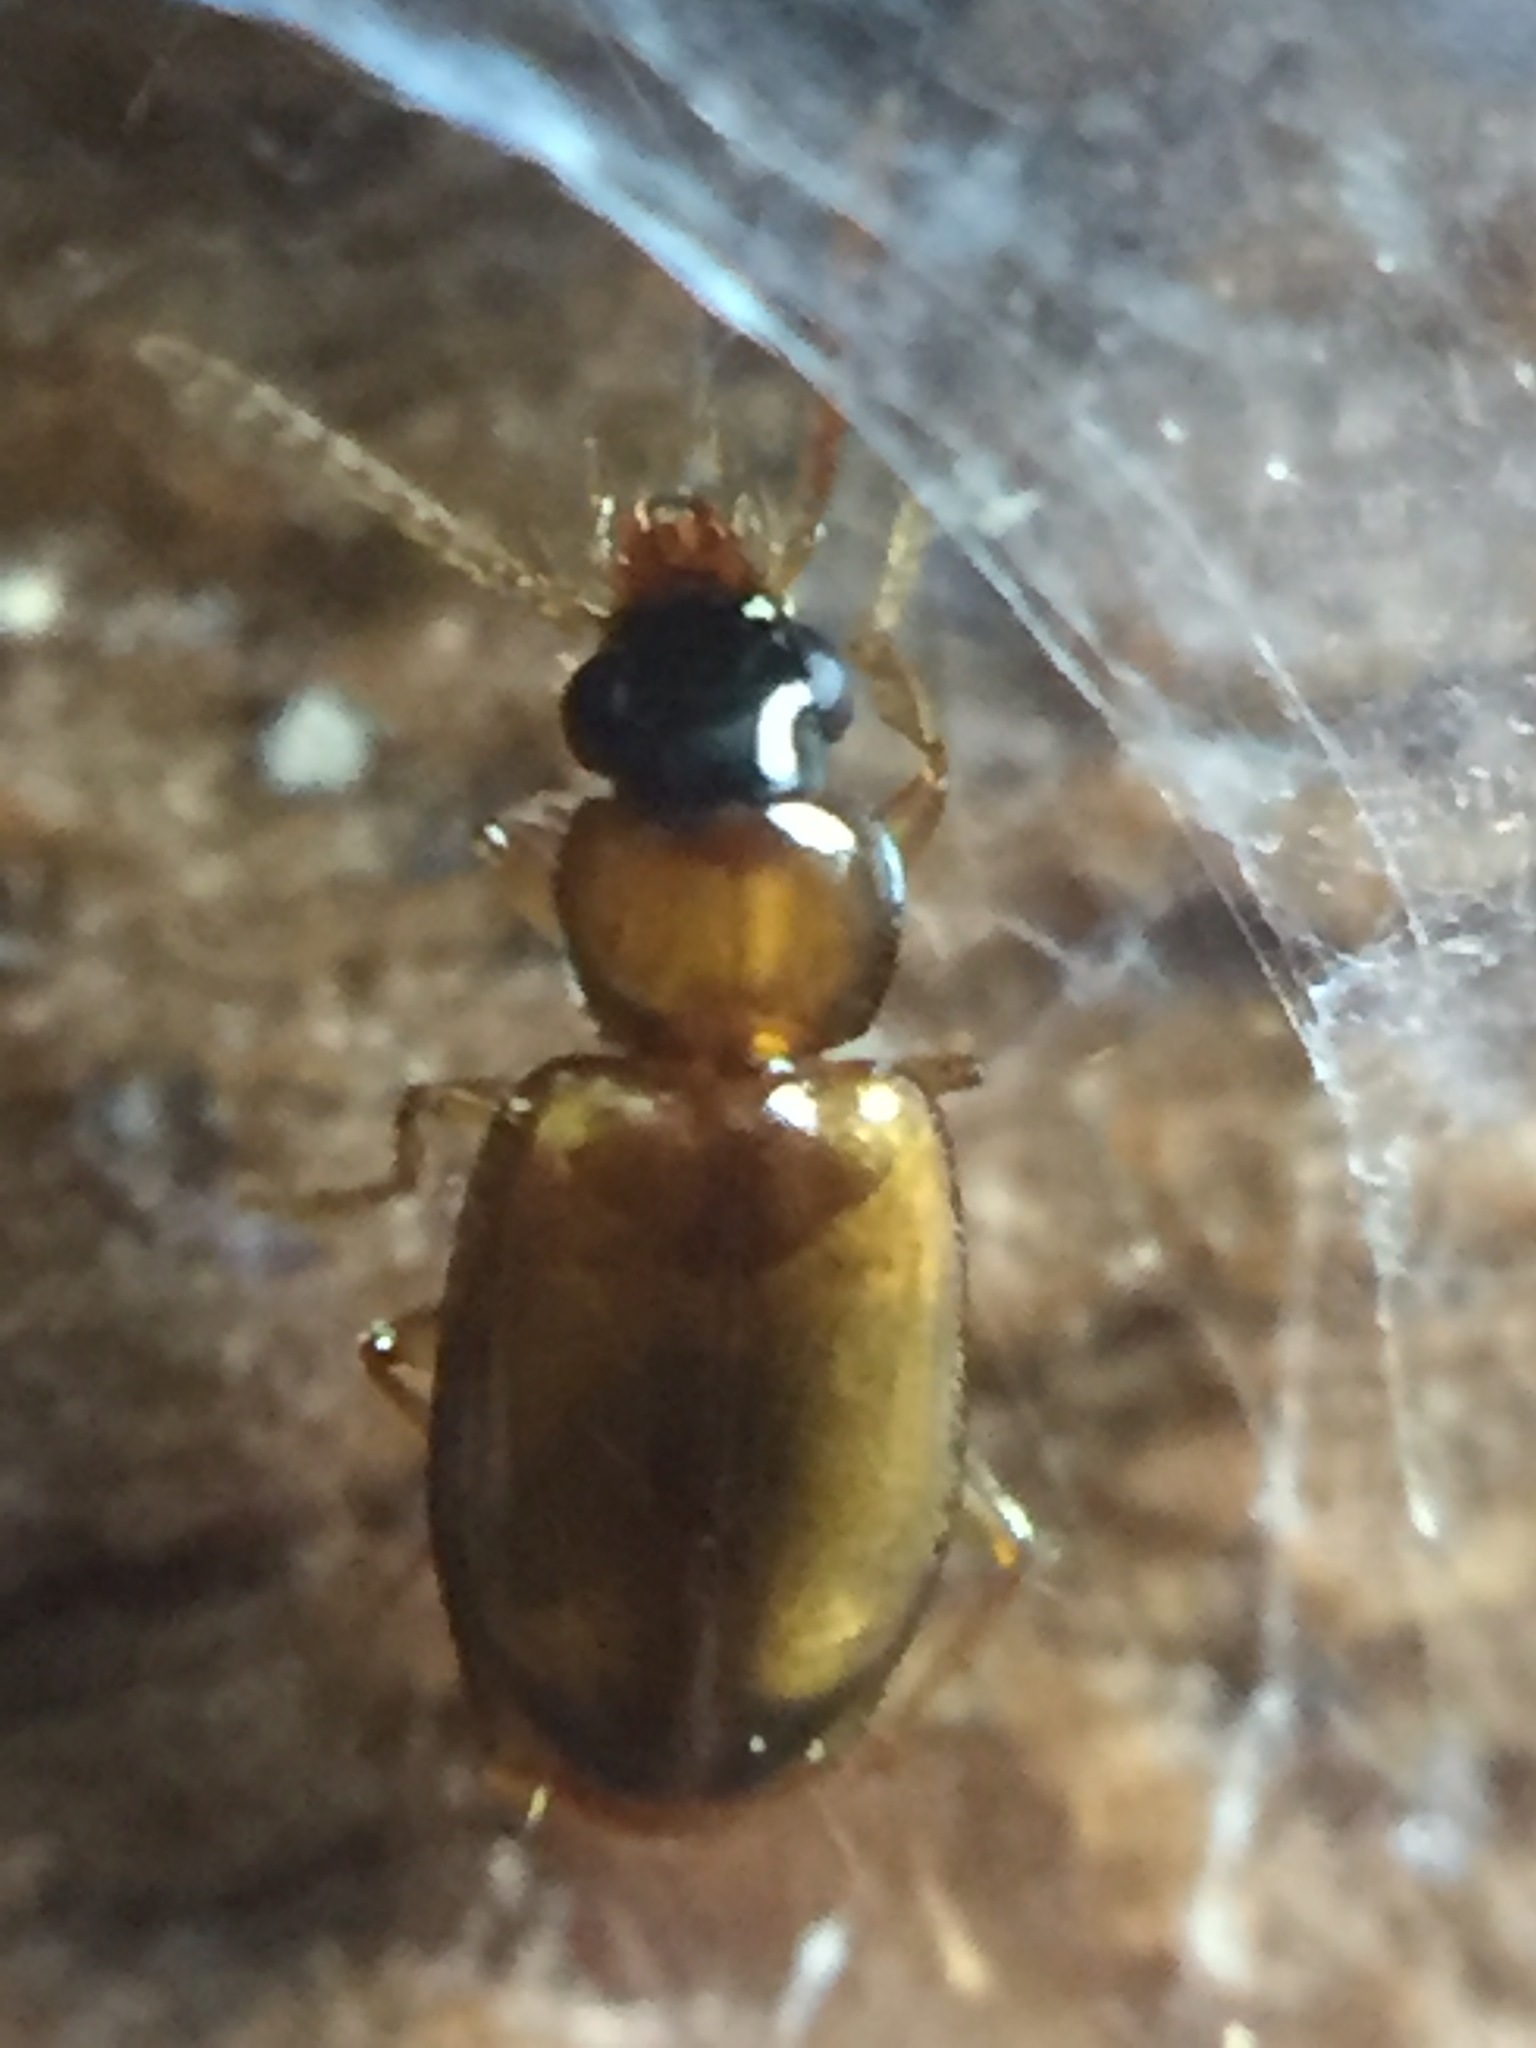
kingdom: Animalia
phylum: Arthropoda
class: Insecta
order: Coleoptera
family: Carabidae
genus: Perigona
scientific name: Perigona nigriceps
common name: Tawny harp ground beetle
